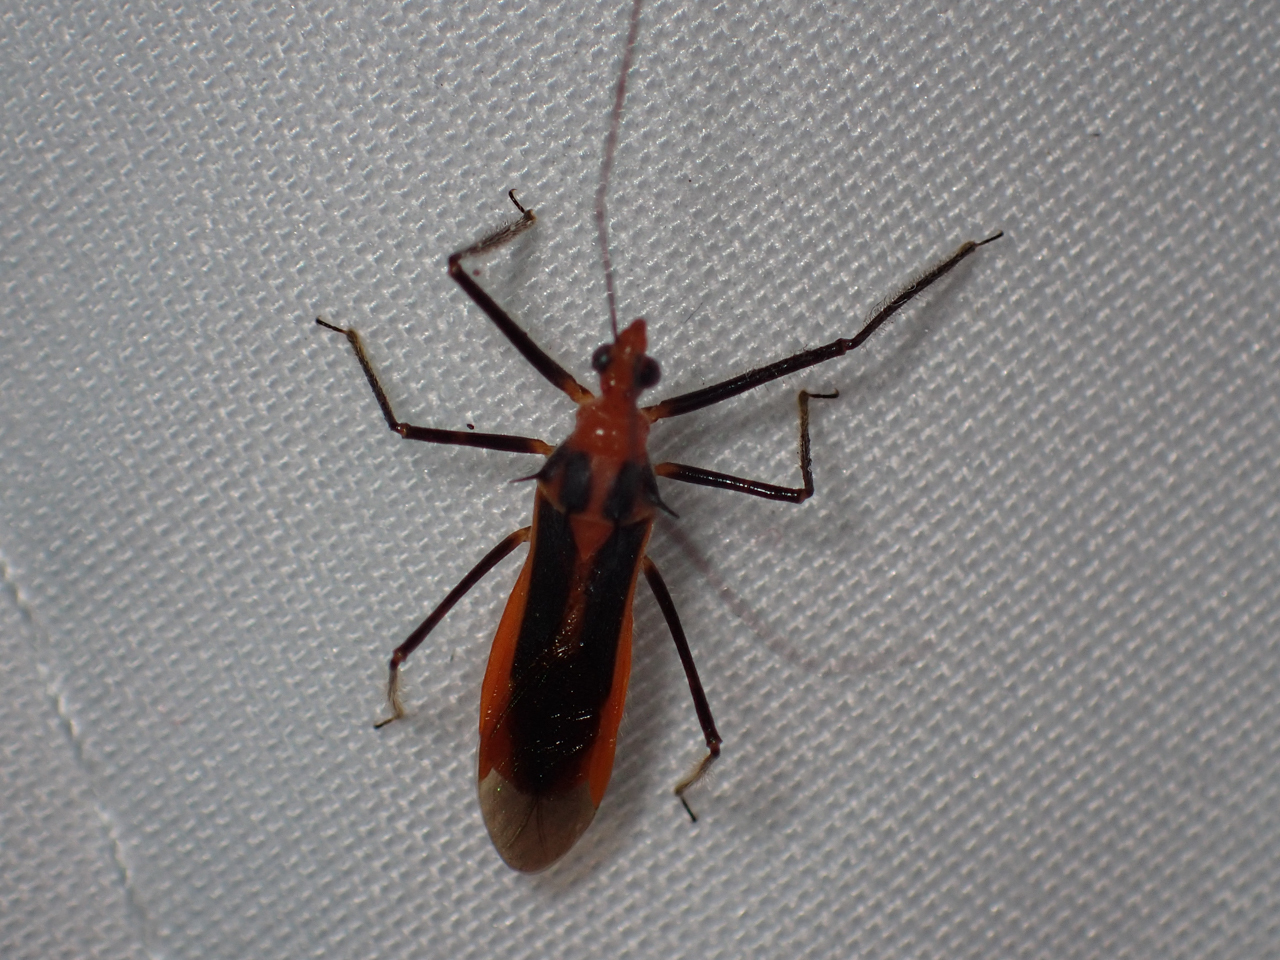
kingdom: Animalia
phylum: Arthropoda
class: Insecta
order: Hemiptera
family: Reduviidae
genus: Repipta
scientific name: Repipta taurus
